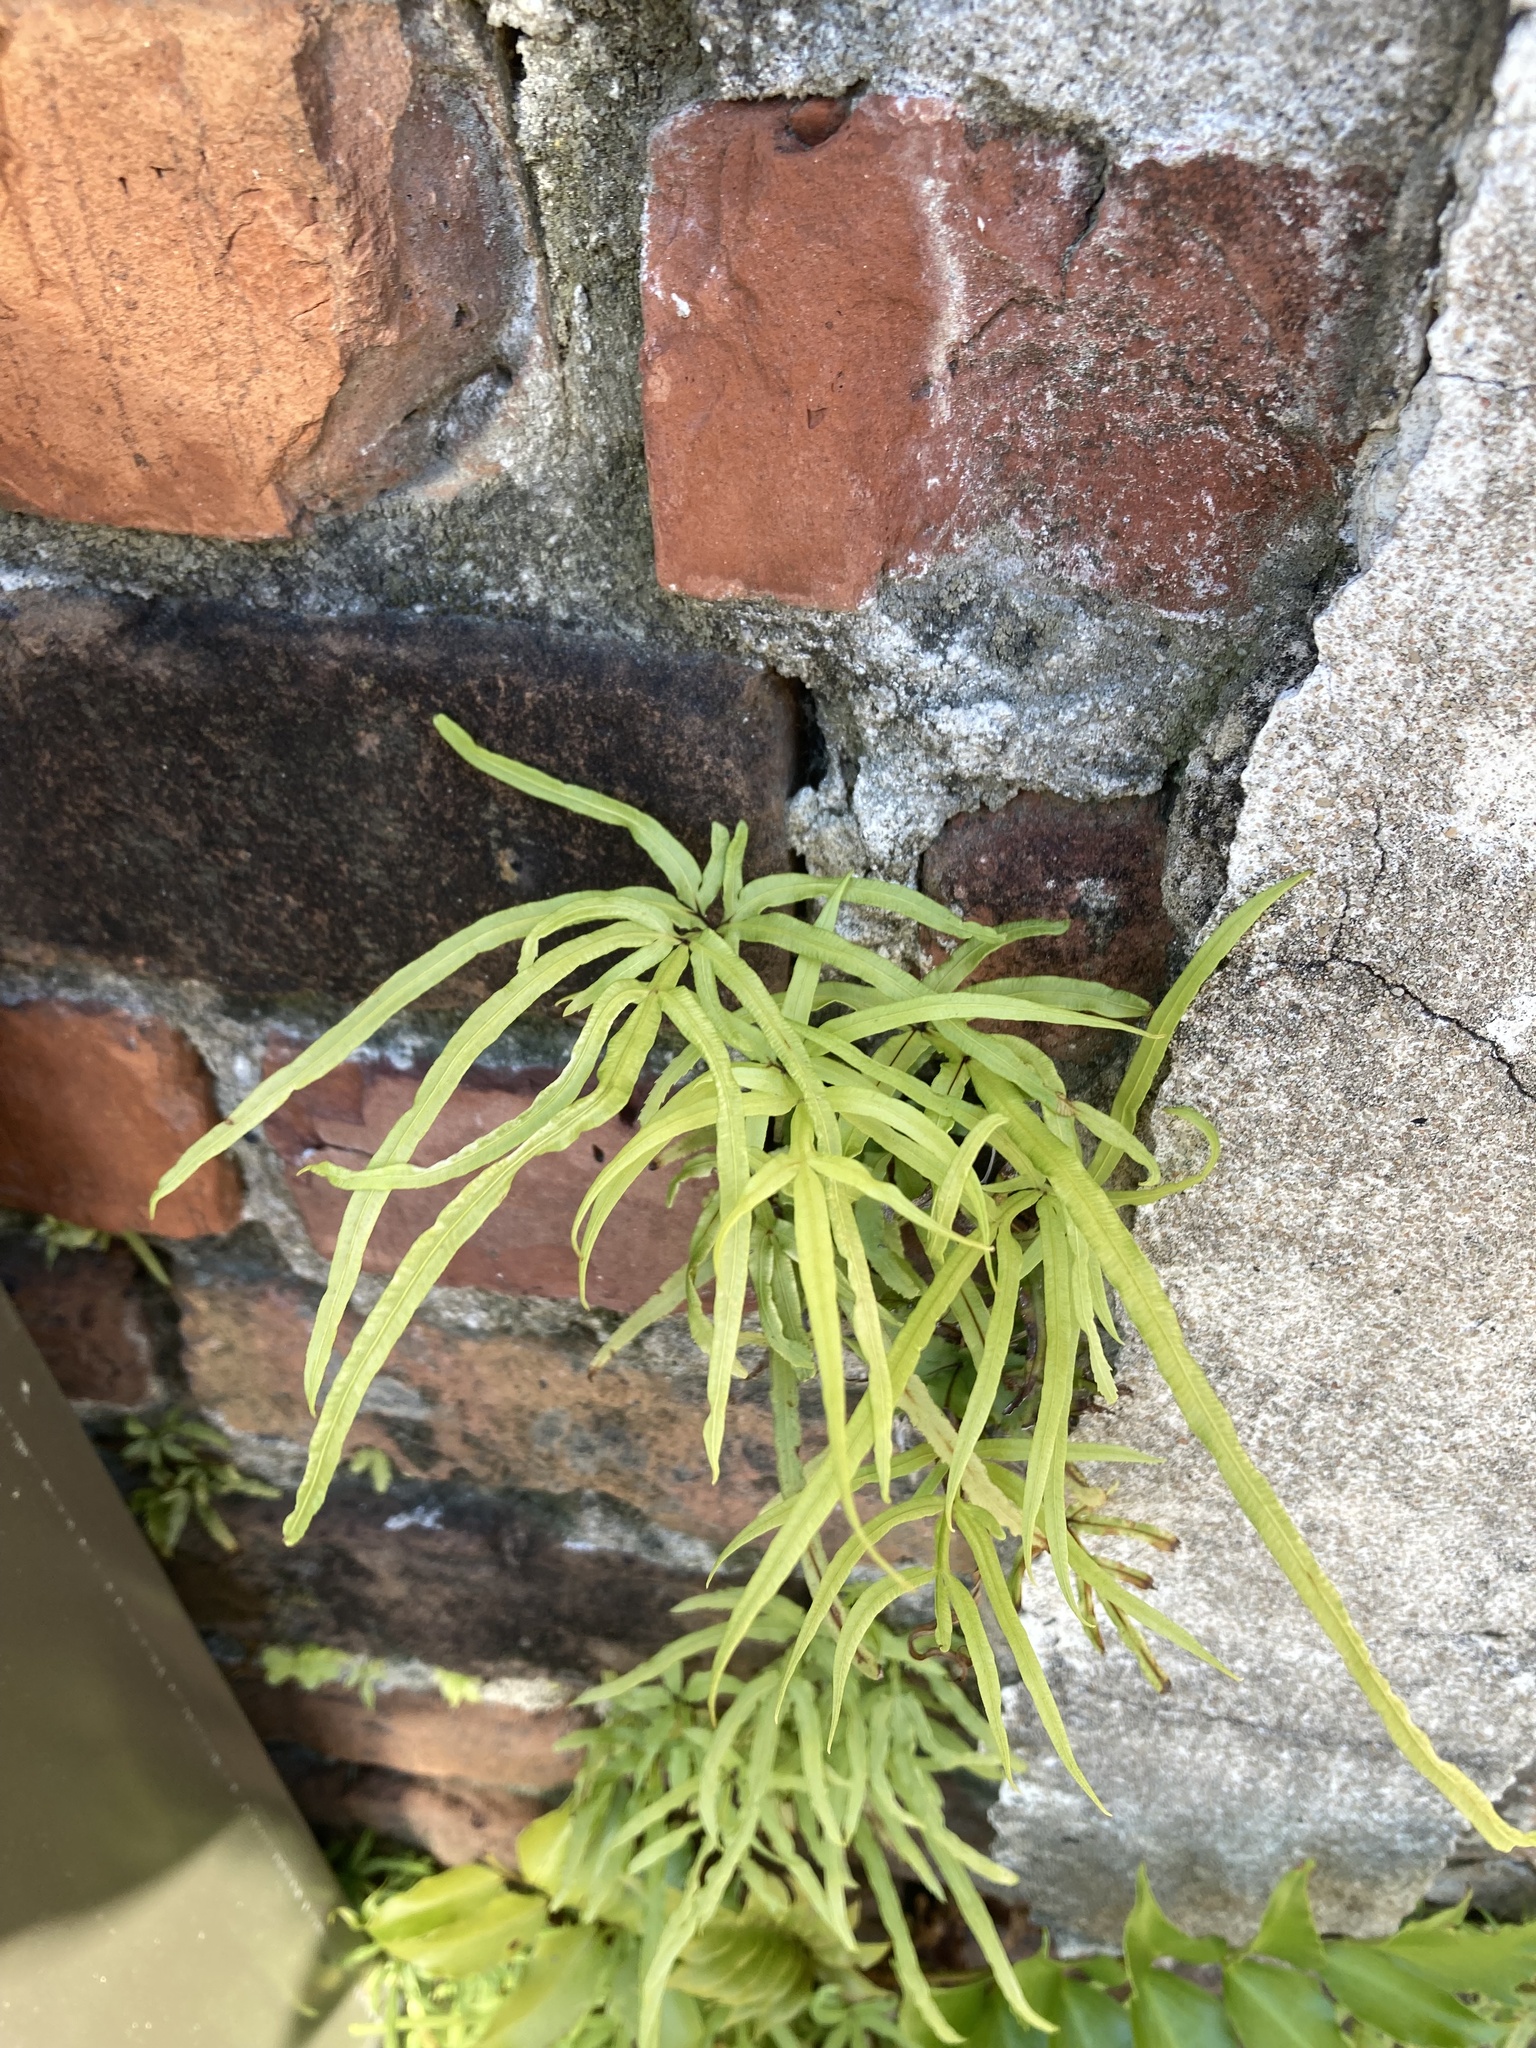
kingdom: Plantae
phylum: Tracheophyta
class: Polypodiopsida
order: Polypodiales
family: Pteridaceae
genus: Pteris
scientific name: Pteris multifida
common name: Spider brake
